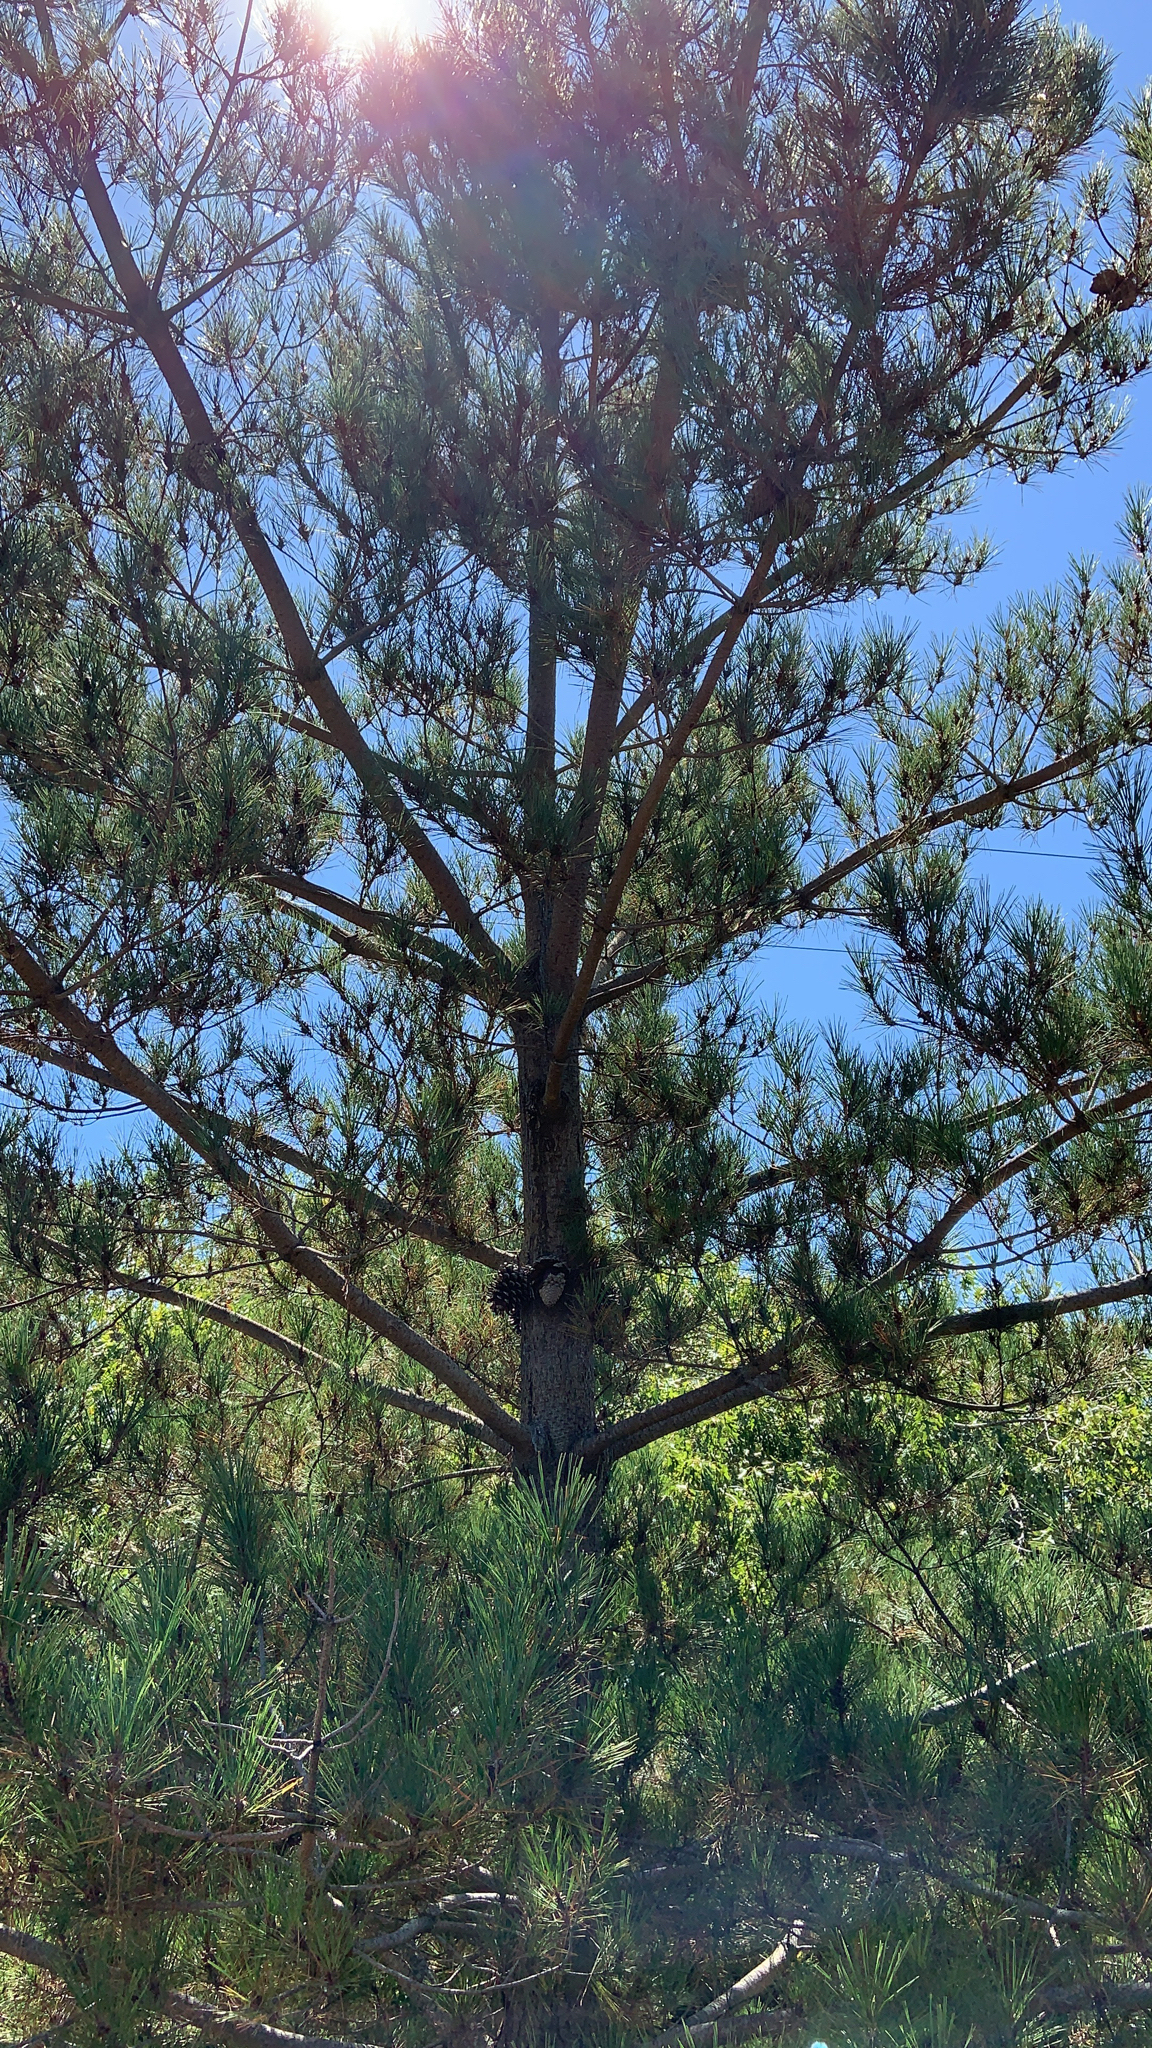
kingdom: Plantae
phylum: Tracheophyta
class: Pinopsida
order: Pinales
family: Pinaceae
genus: Pinus
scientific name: Pinus radiata
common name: Monterey pine
